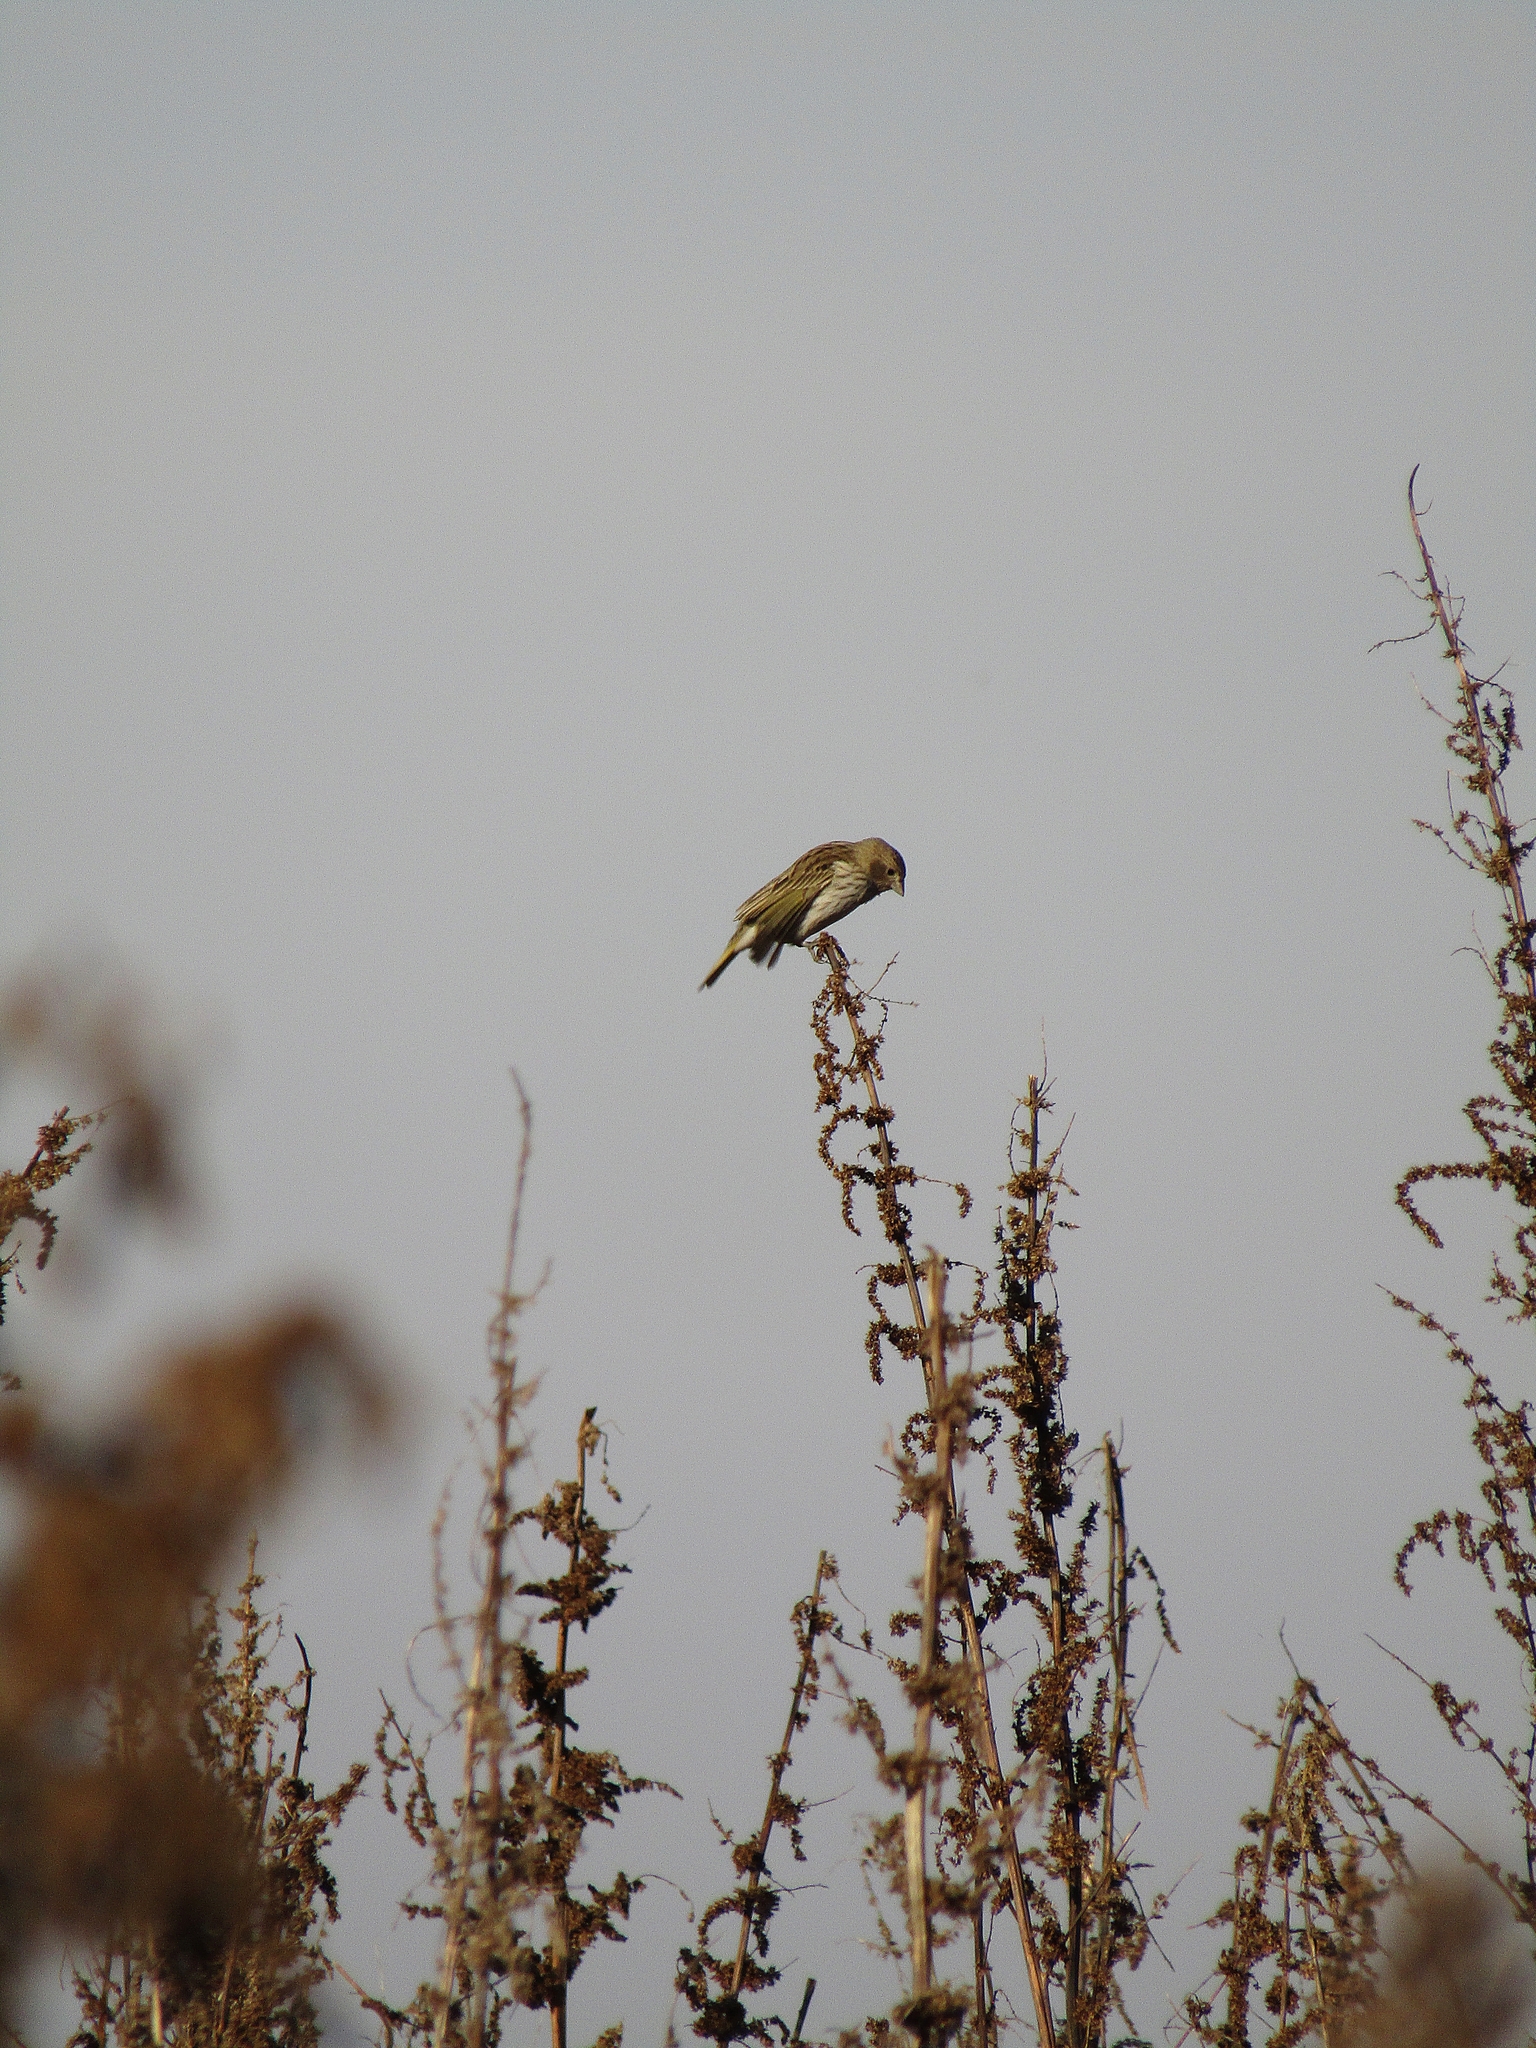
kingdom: Animalia
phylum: Chordata
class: Aves
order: Passeriformes
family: Thraupidae
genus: Sicalis
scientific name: Sicalis flaveola
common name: Saffron finch
